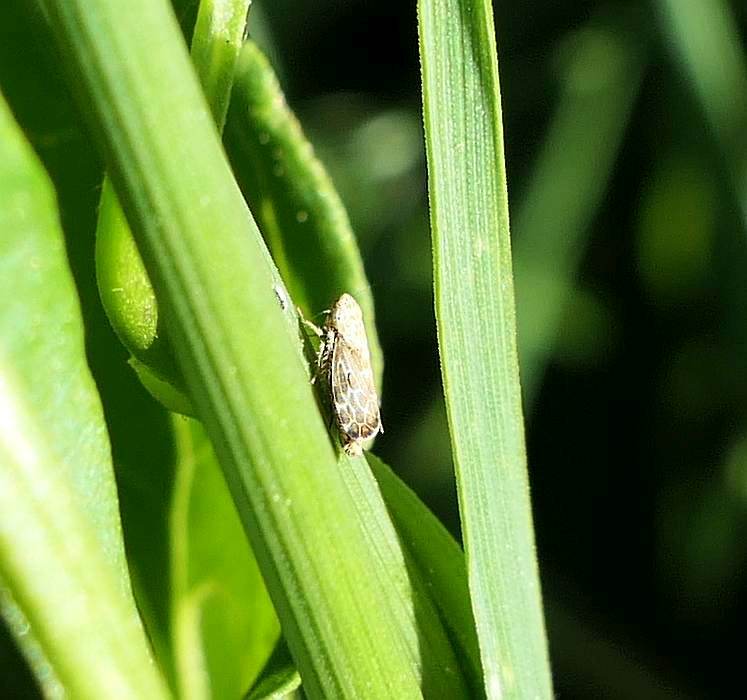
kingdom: Animalia
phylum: Arthropoda
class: Insecta
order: Hemiptera
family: Cicadellidae
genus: Errastunus
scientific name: Errastunus ocellaris
